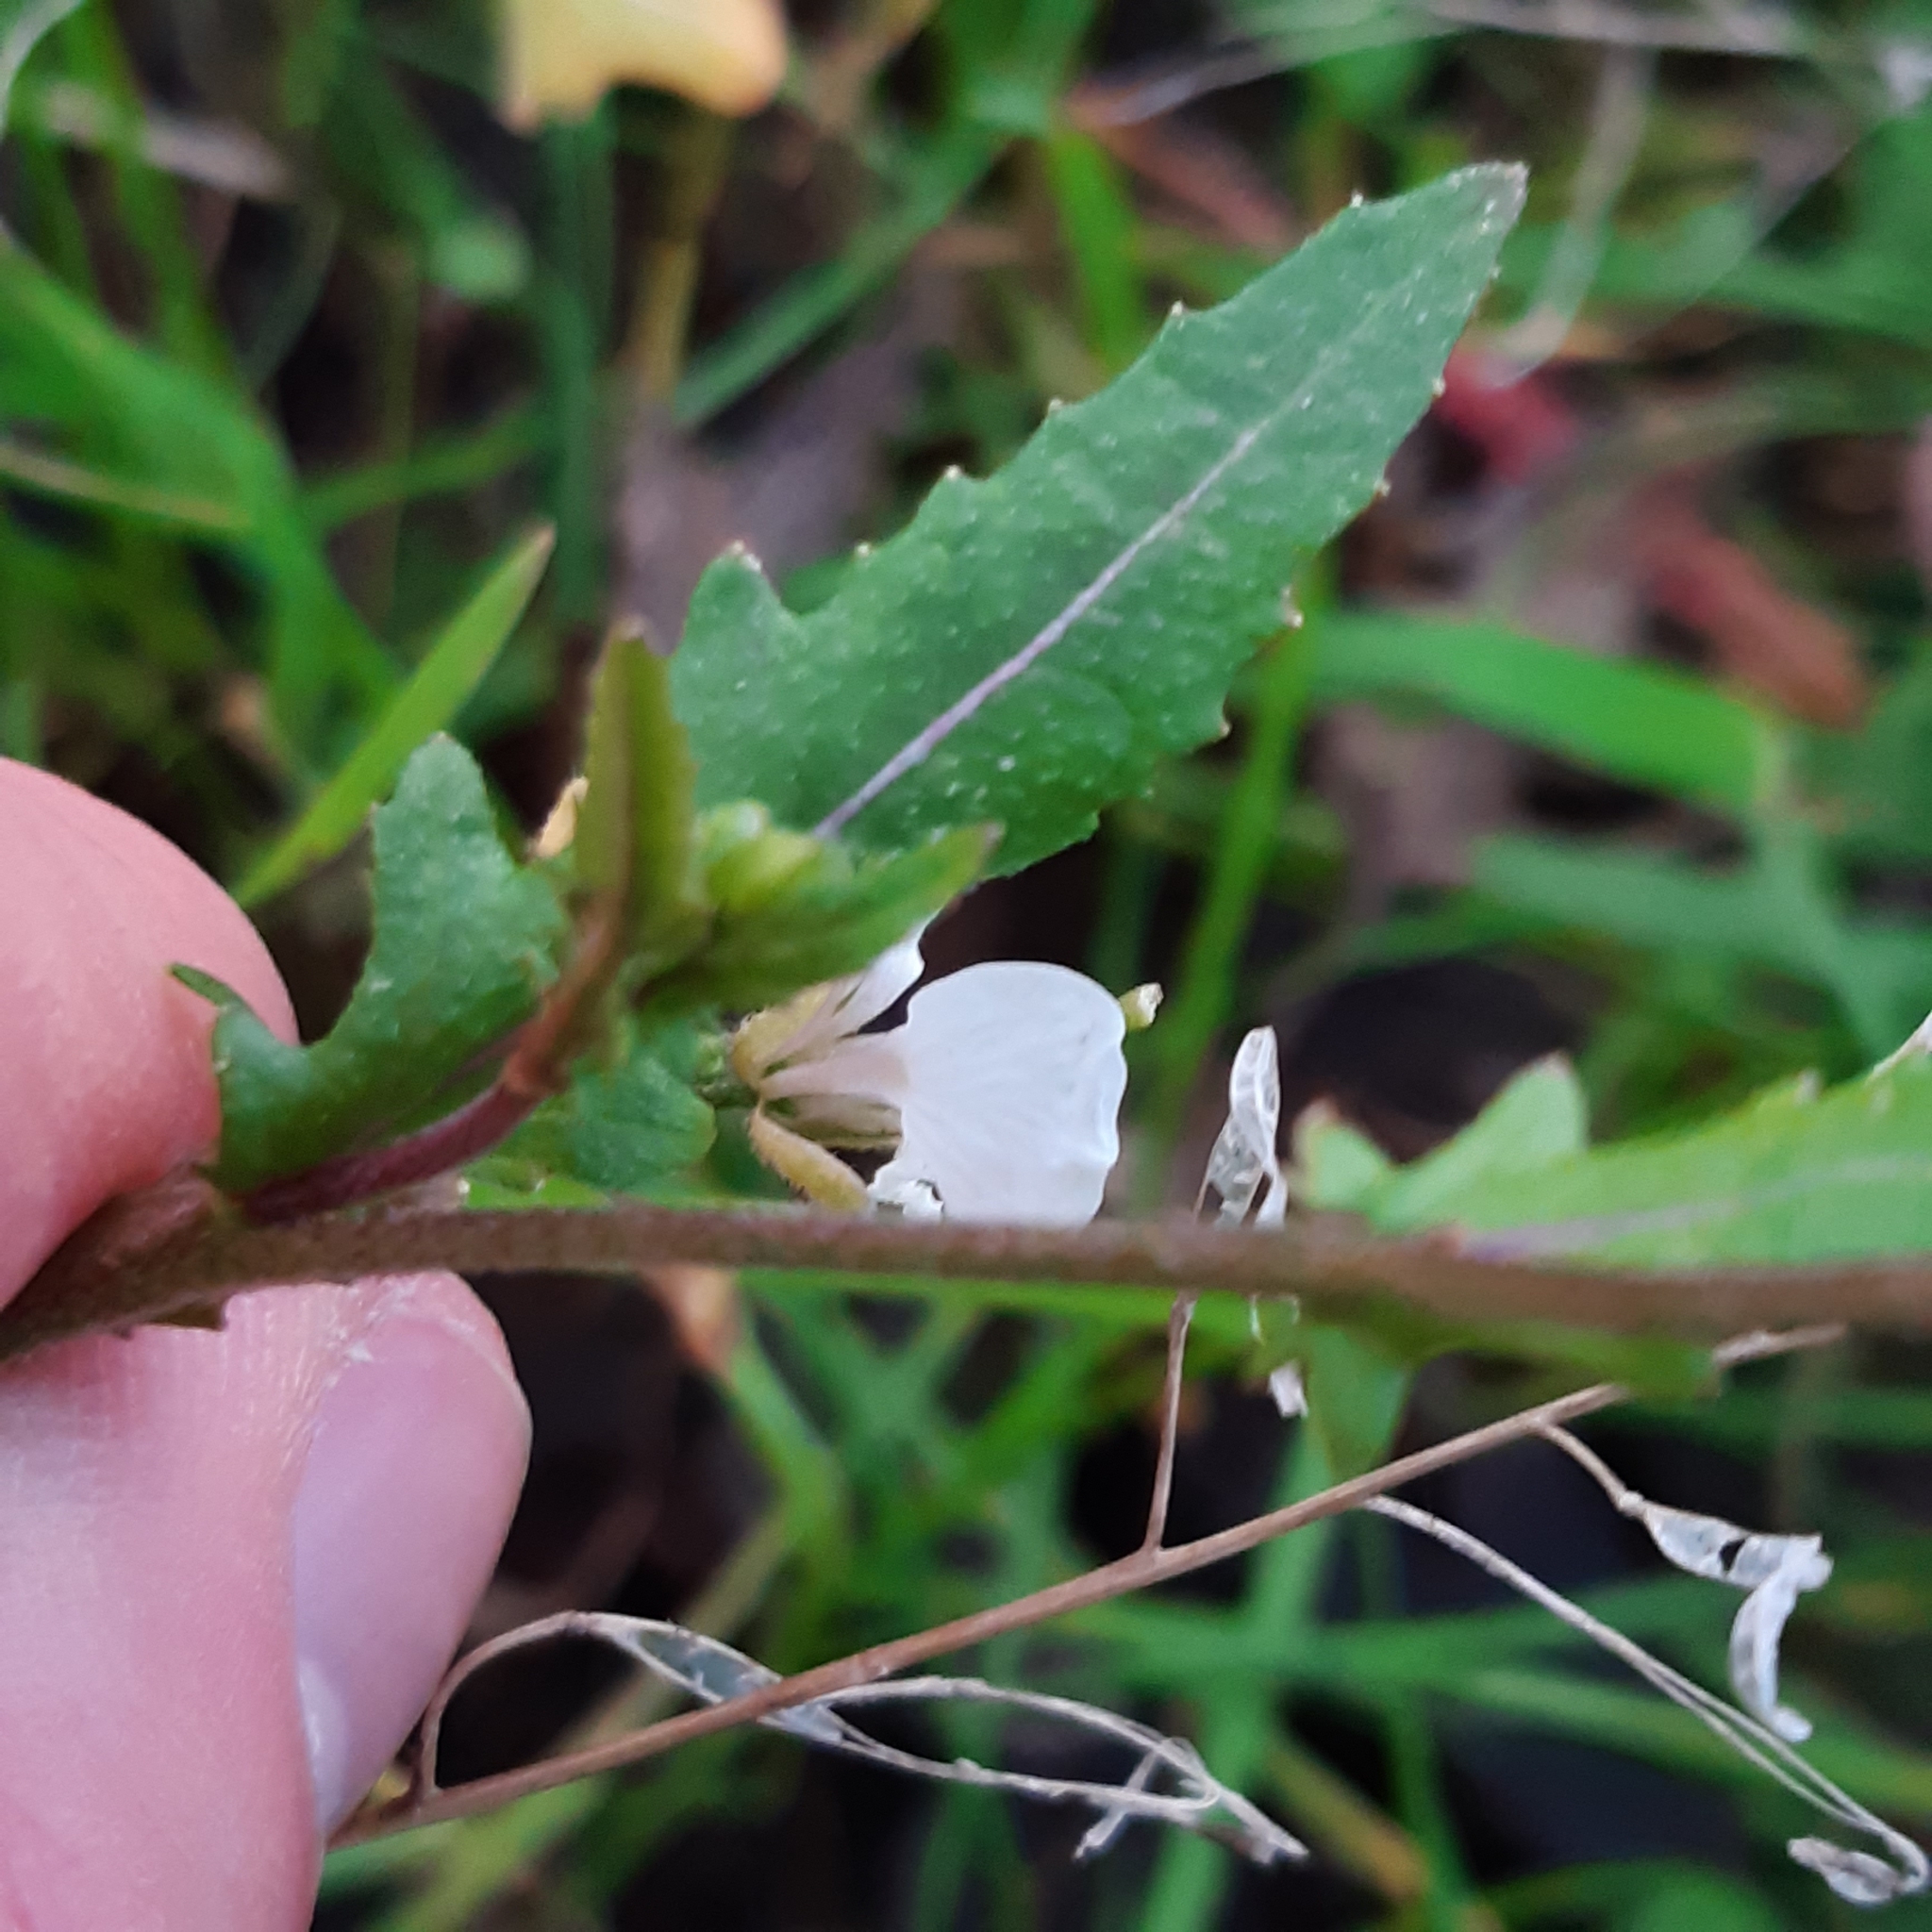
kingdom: Plantae
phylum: Tracheophyta
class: Magnoliopsida
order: Brassicales
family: Brassicaceae
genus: Diplotaxis
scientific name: Diplotaxis erucoides
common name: White rocket
